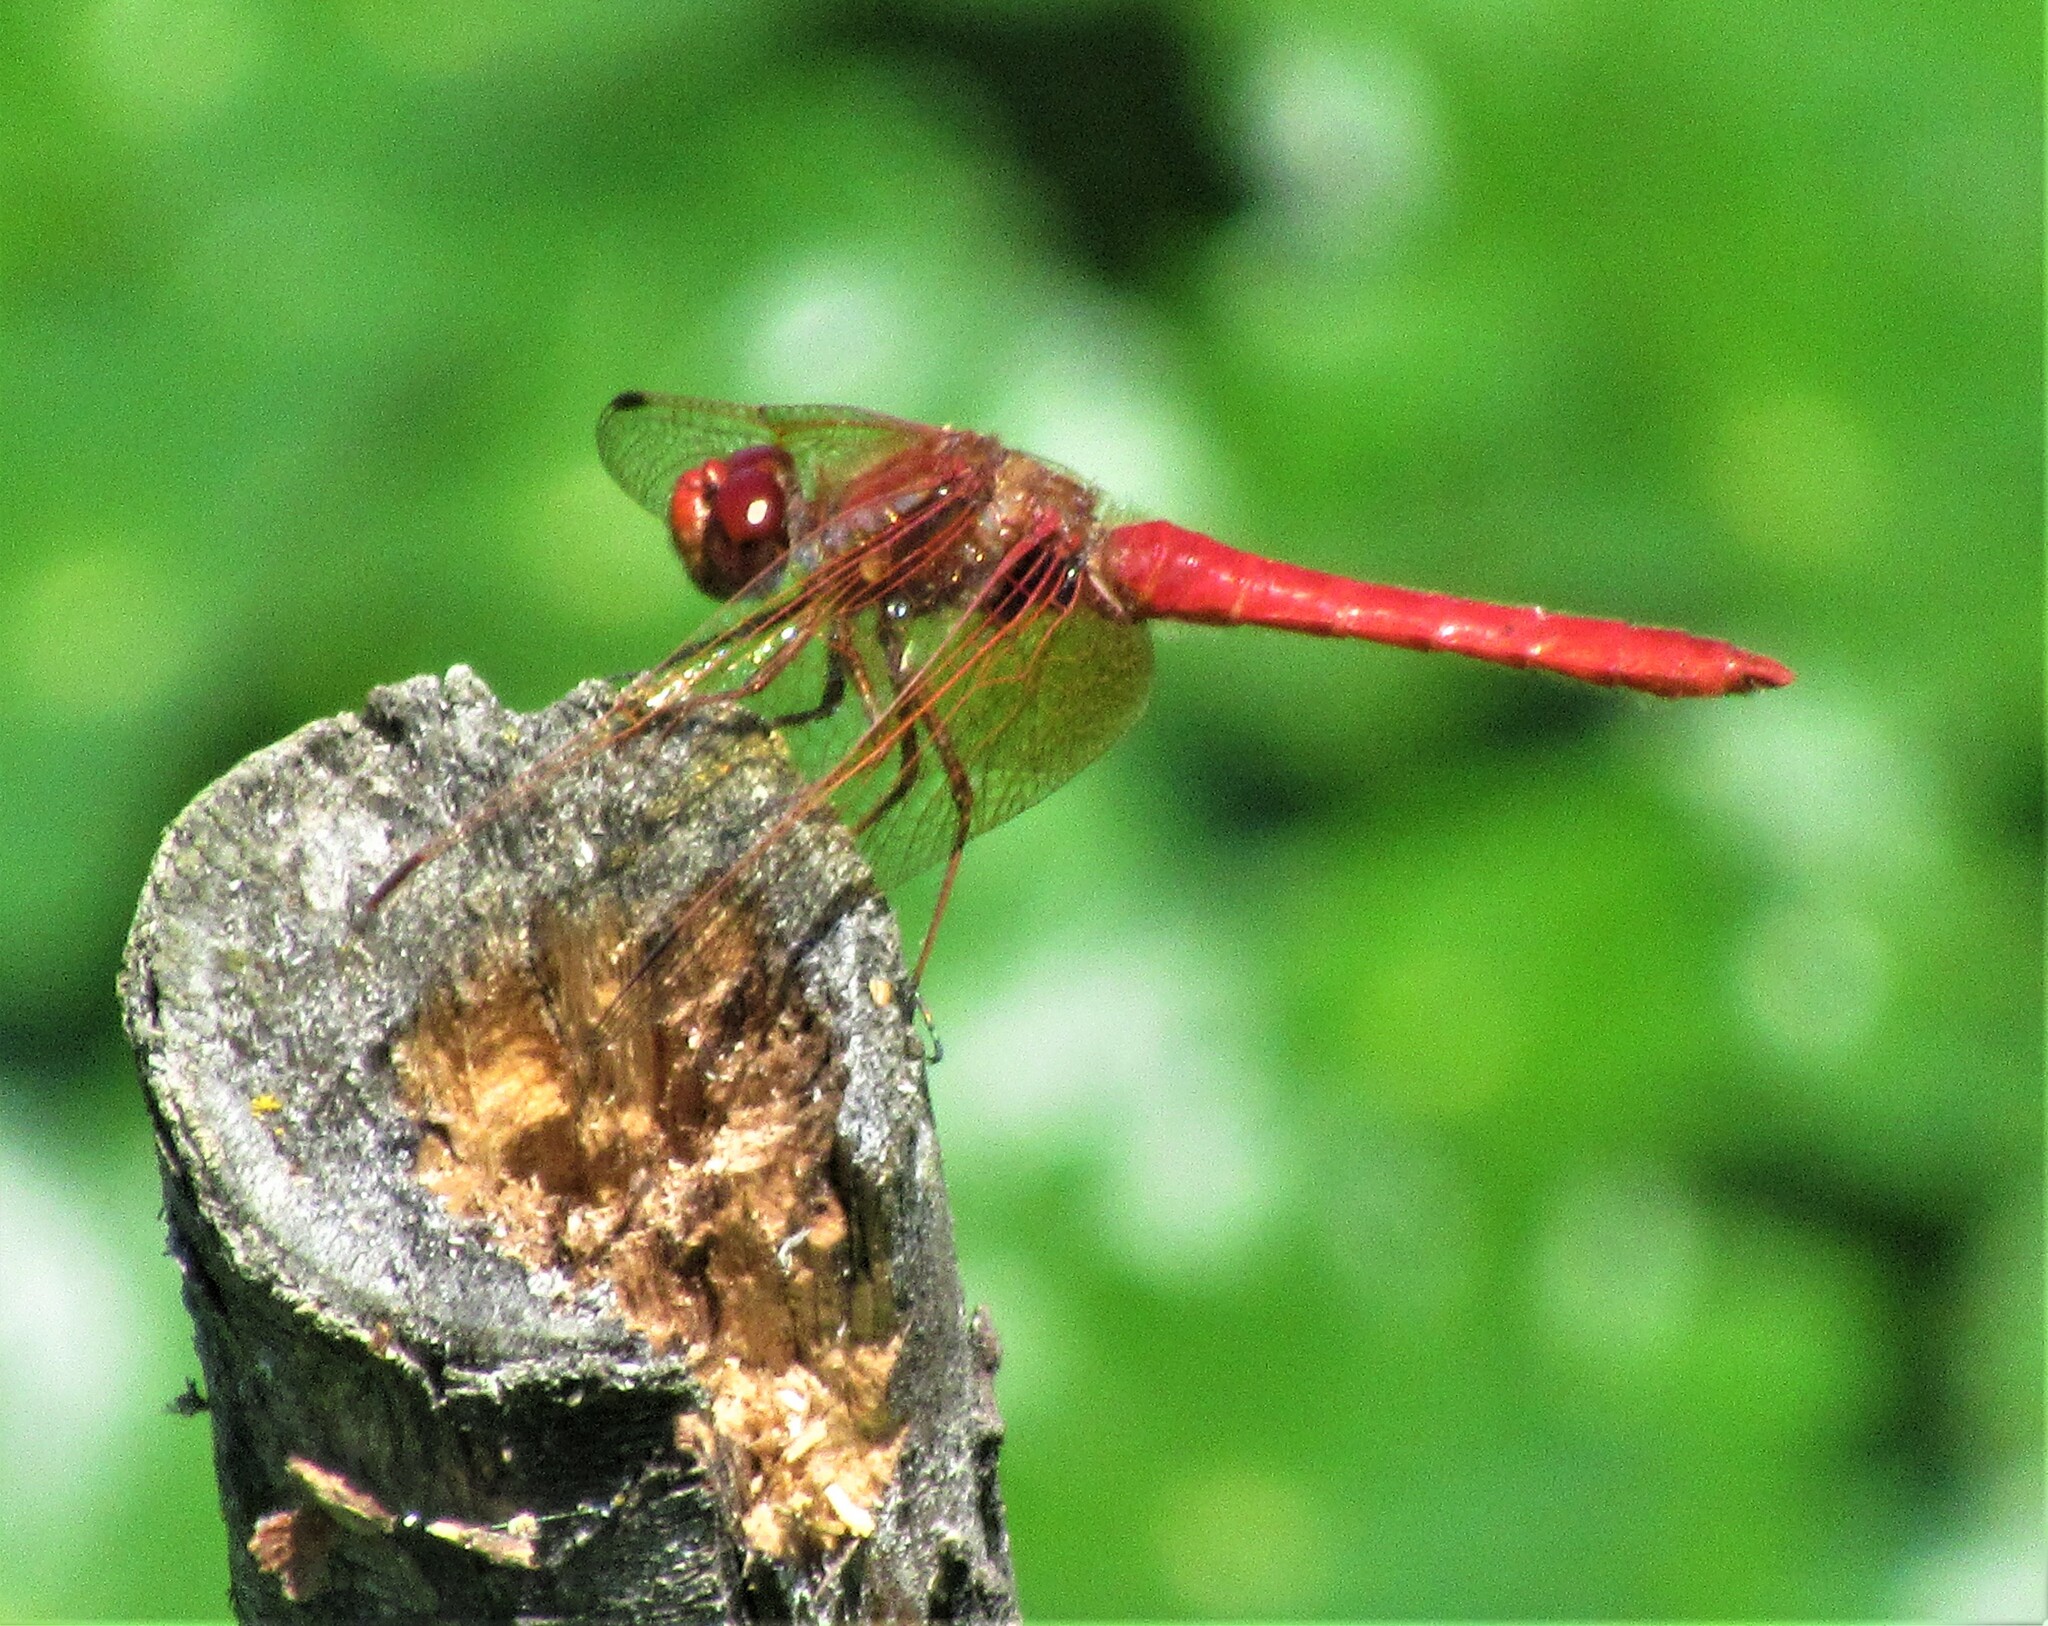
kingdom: Animalia
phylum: Arthropoda
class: Insecta
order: Odonata
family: Libellulidae
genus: Sympetrum
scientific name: Sympetrum illotum
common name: Cardinal meadowhawk
